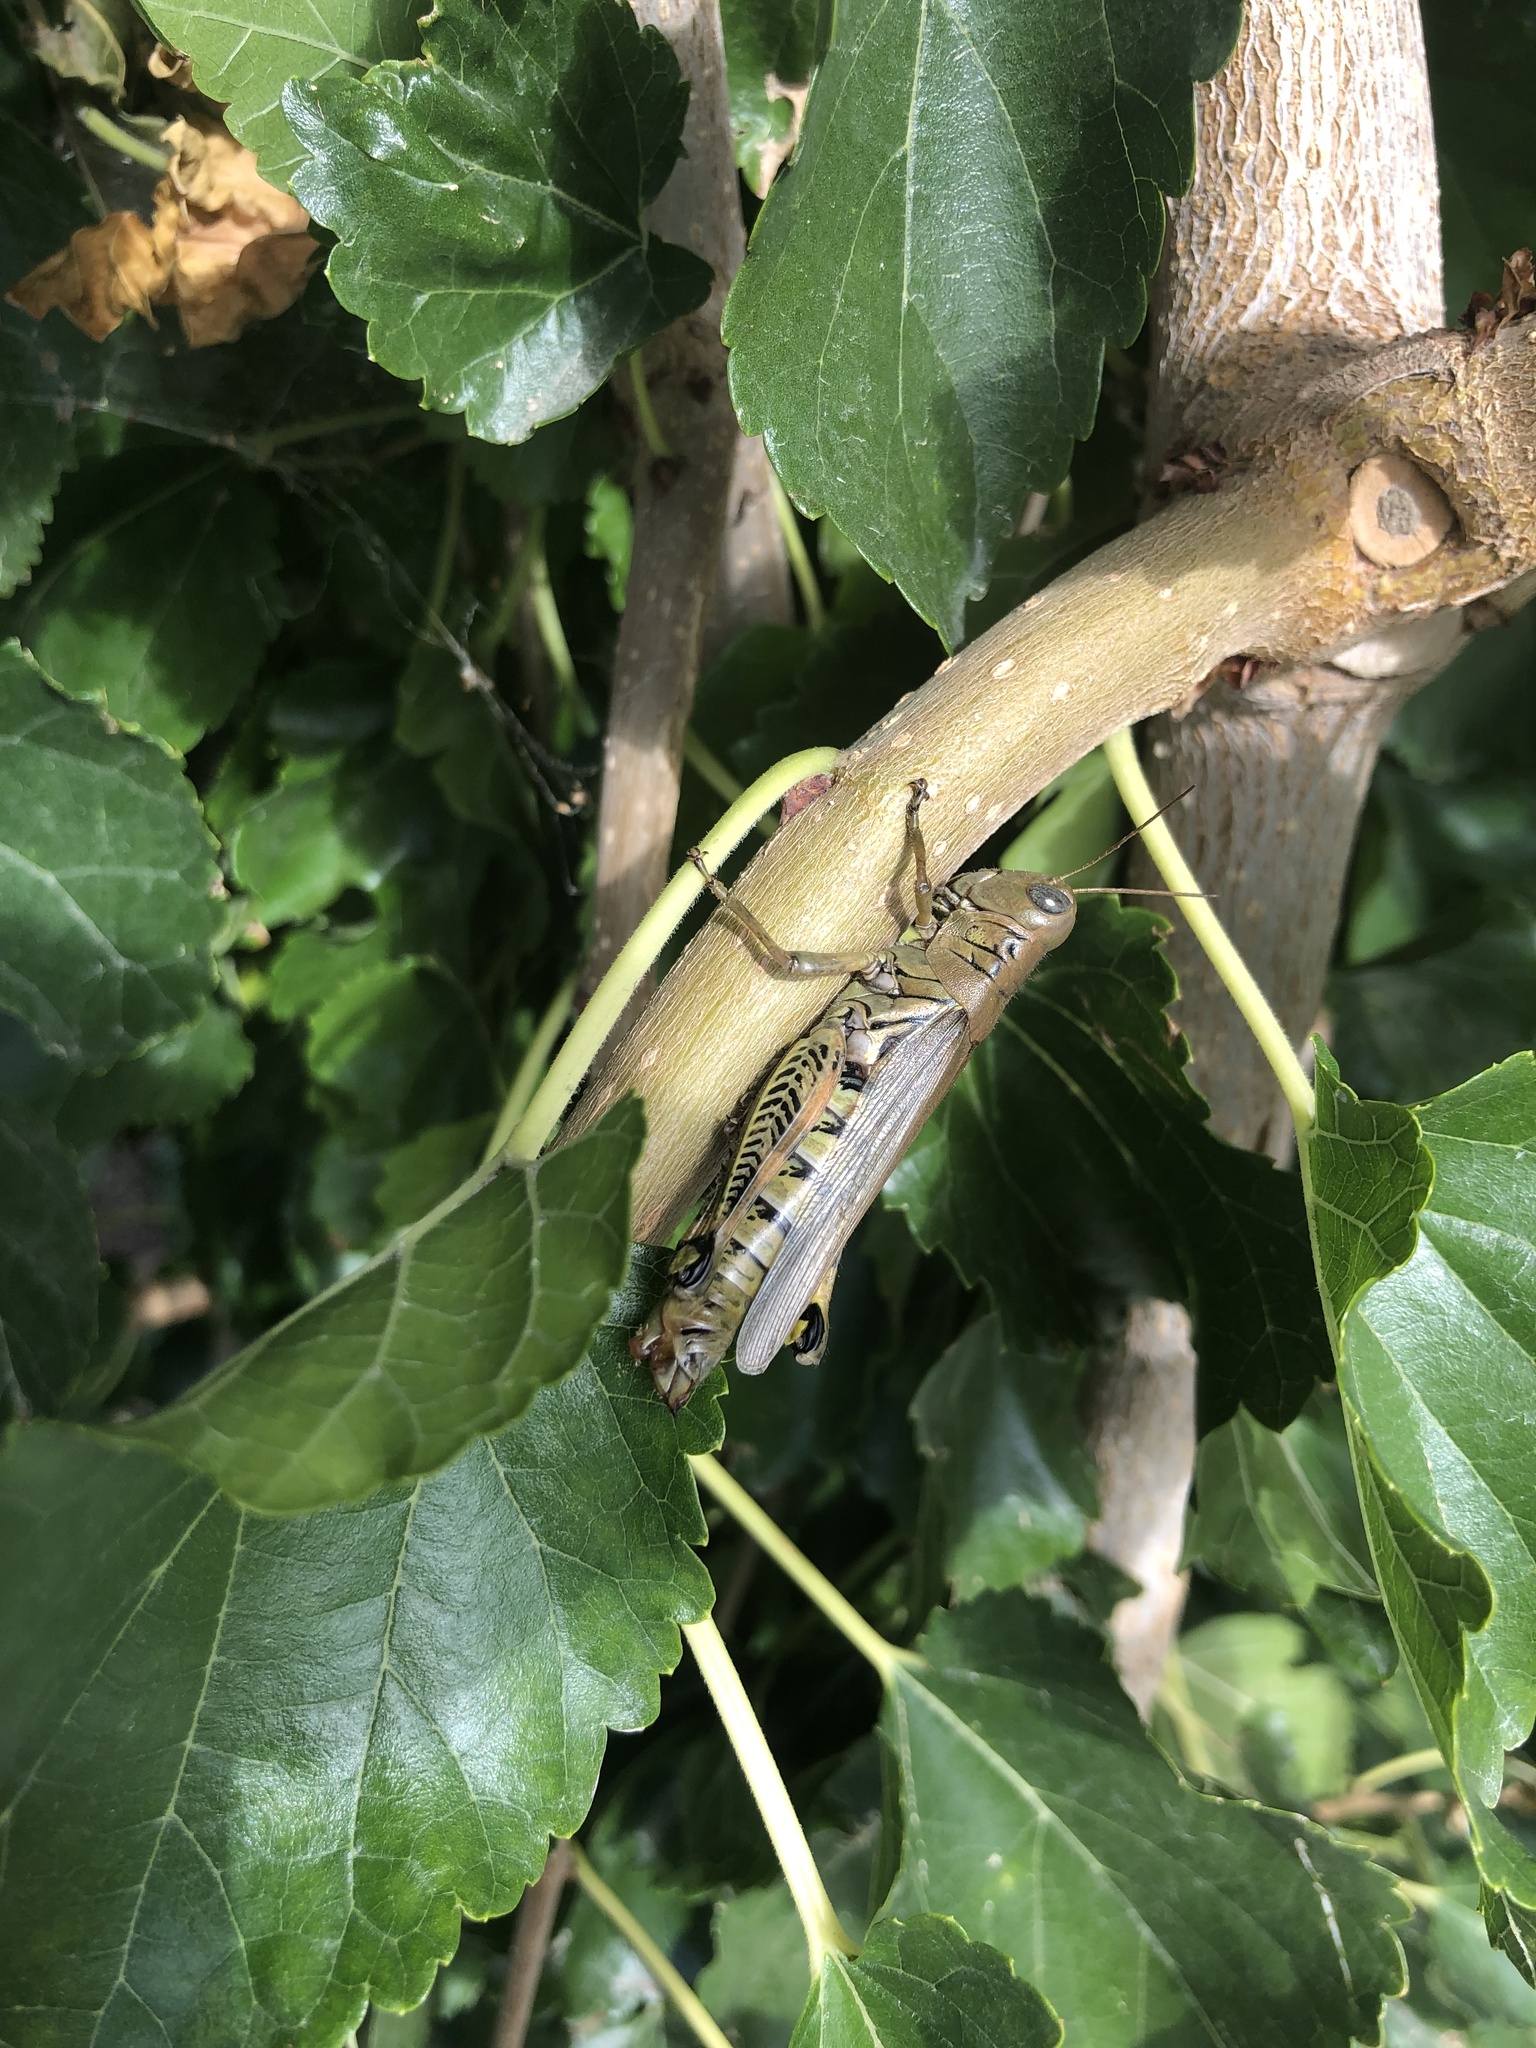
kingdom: Animalia
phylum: Arthropoda
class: Insecta
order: Orthoptera
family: Acrididae
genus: Melanoplus
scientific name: Melanoplus differentialis
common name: Differential grasshopper
